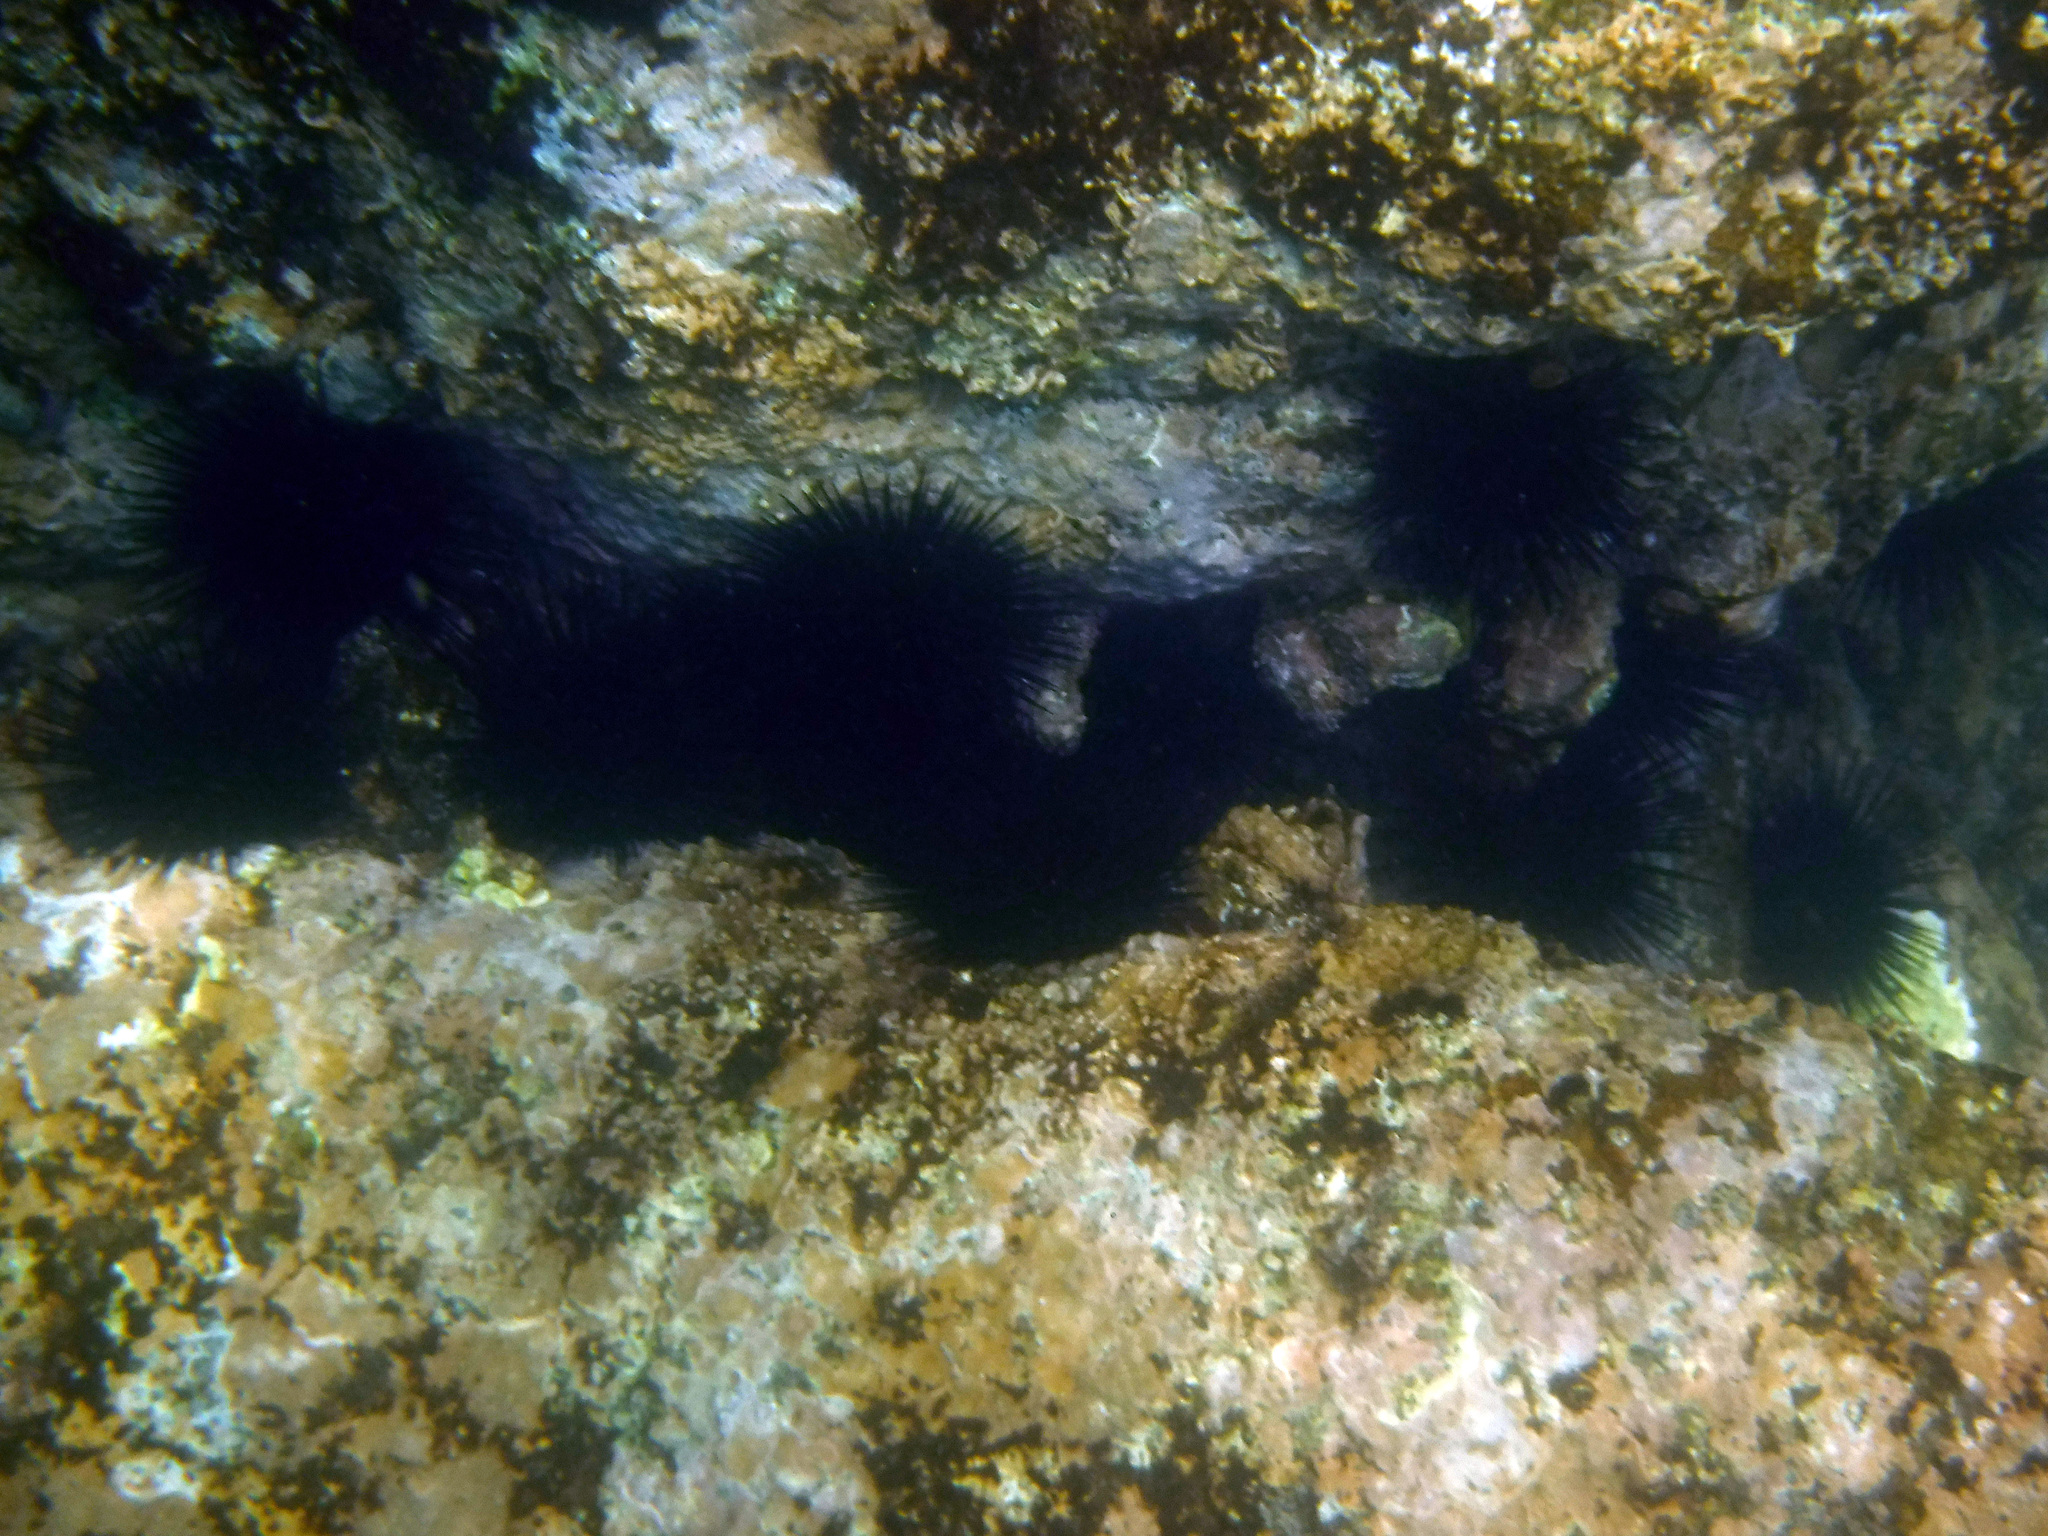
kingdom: Animalia
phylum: Echinodermata
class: Echinoidea
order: Camarodonta
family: Echinometridae
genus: Echinometra
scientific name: Echinometra vanbrunti
